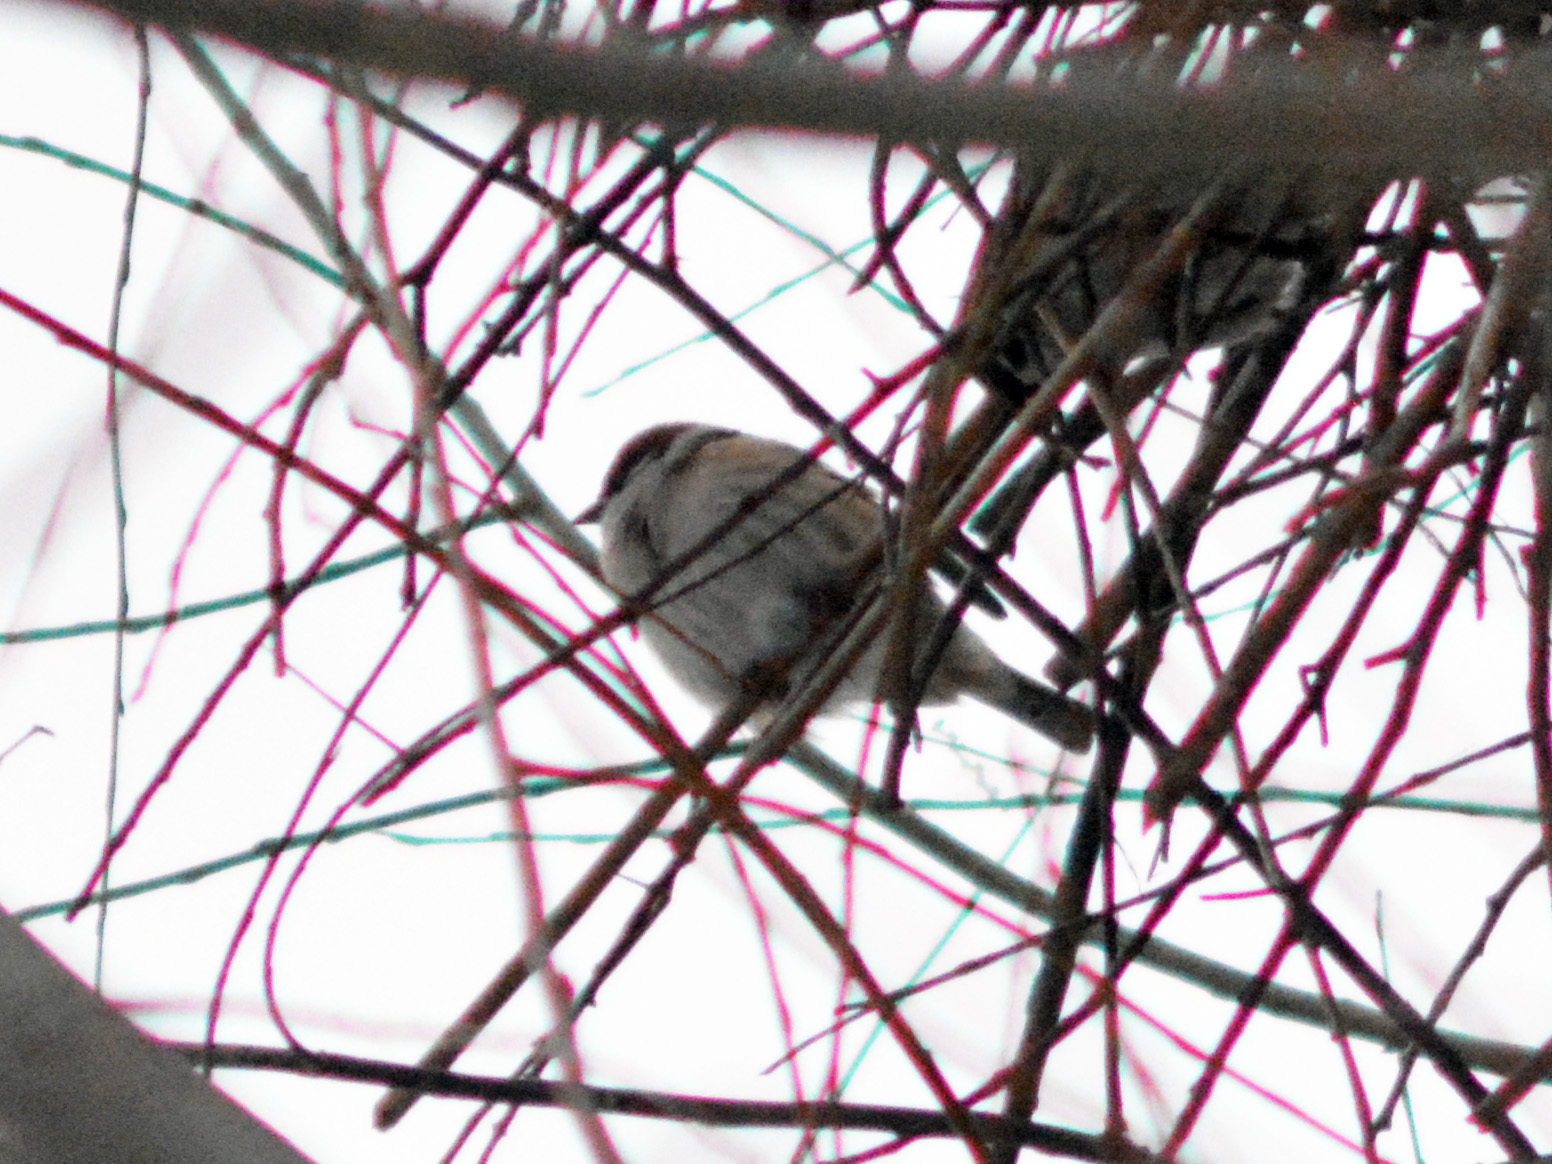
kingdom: Animalia
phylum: Chordata
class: Aves
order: Passeriformes
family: Passeridae
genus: Passer
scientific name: Passer montanus
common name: Eurasian tree sparrow
